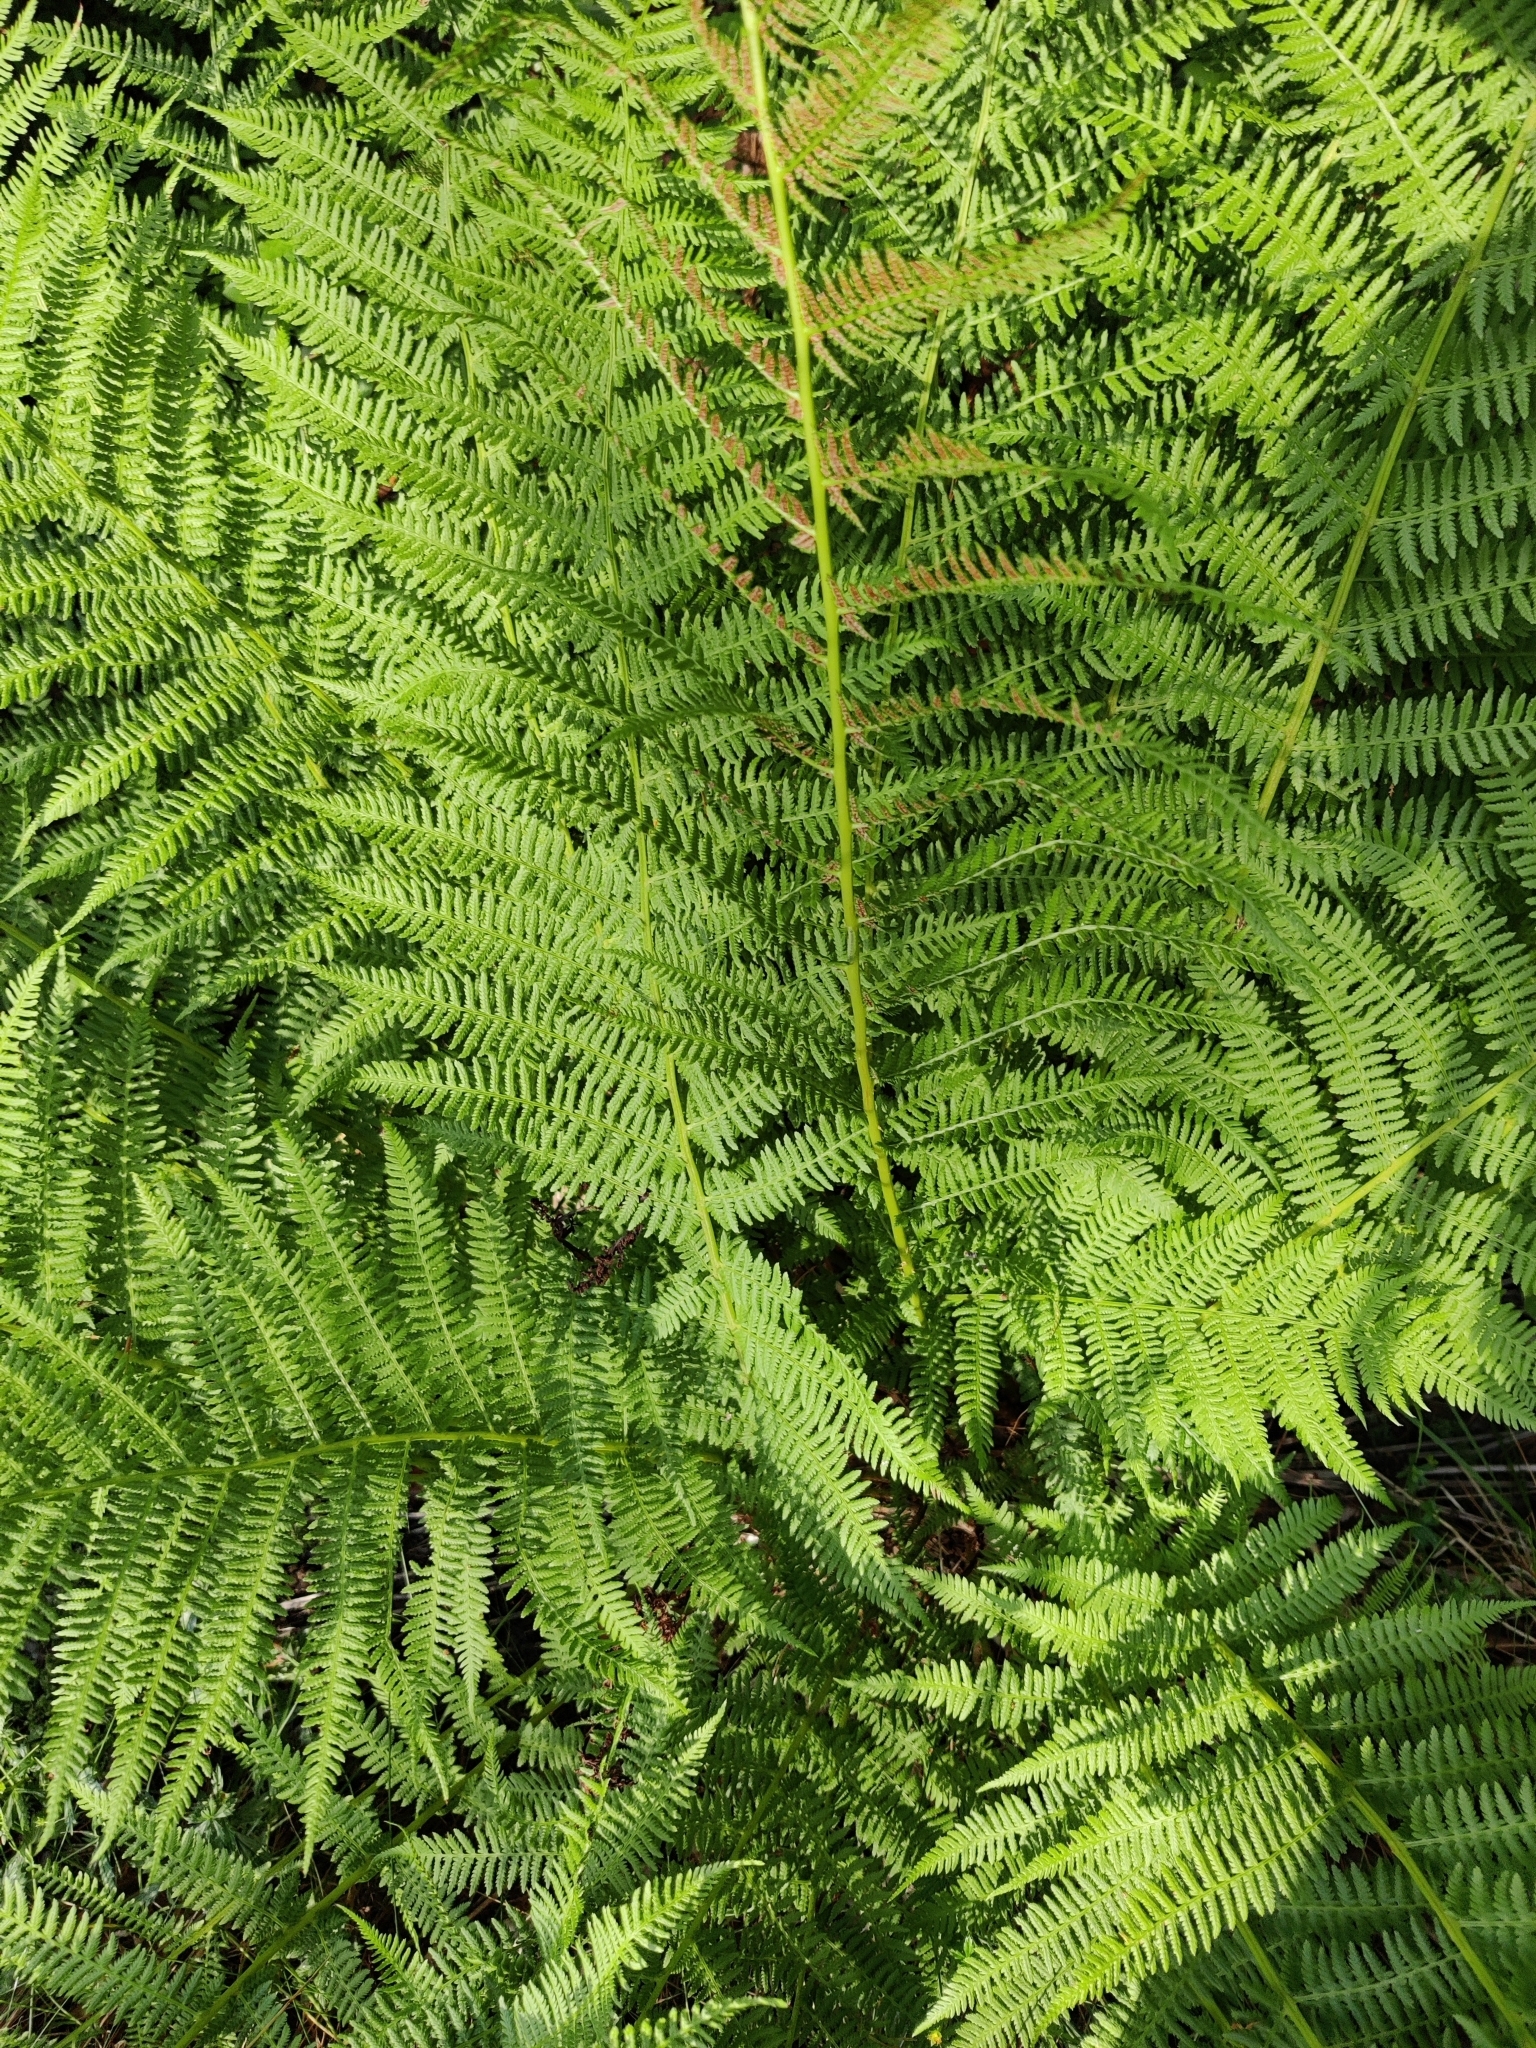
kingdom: Plantae
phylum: Tracheophyta
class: Polypodiopsida
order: Polypodiales
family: Athyriaceae
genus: Athyrium
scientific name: Athyrium filix-femina
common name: Lady fern
